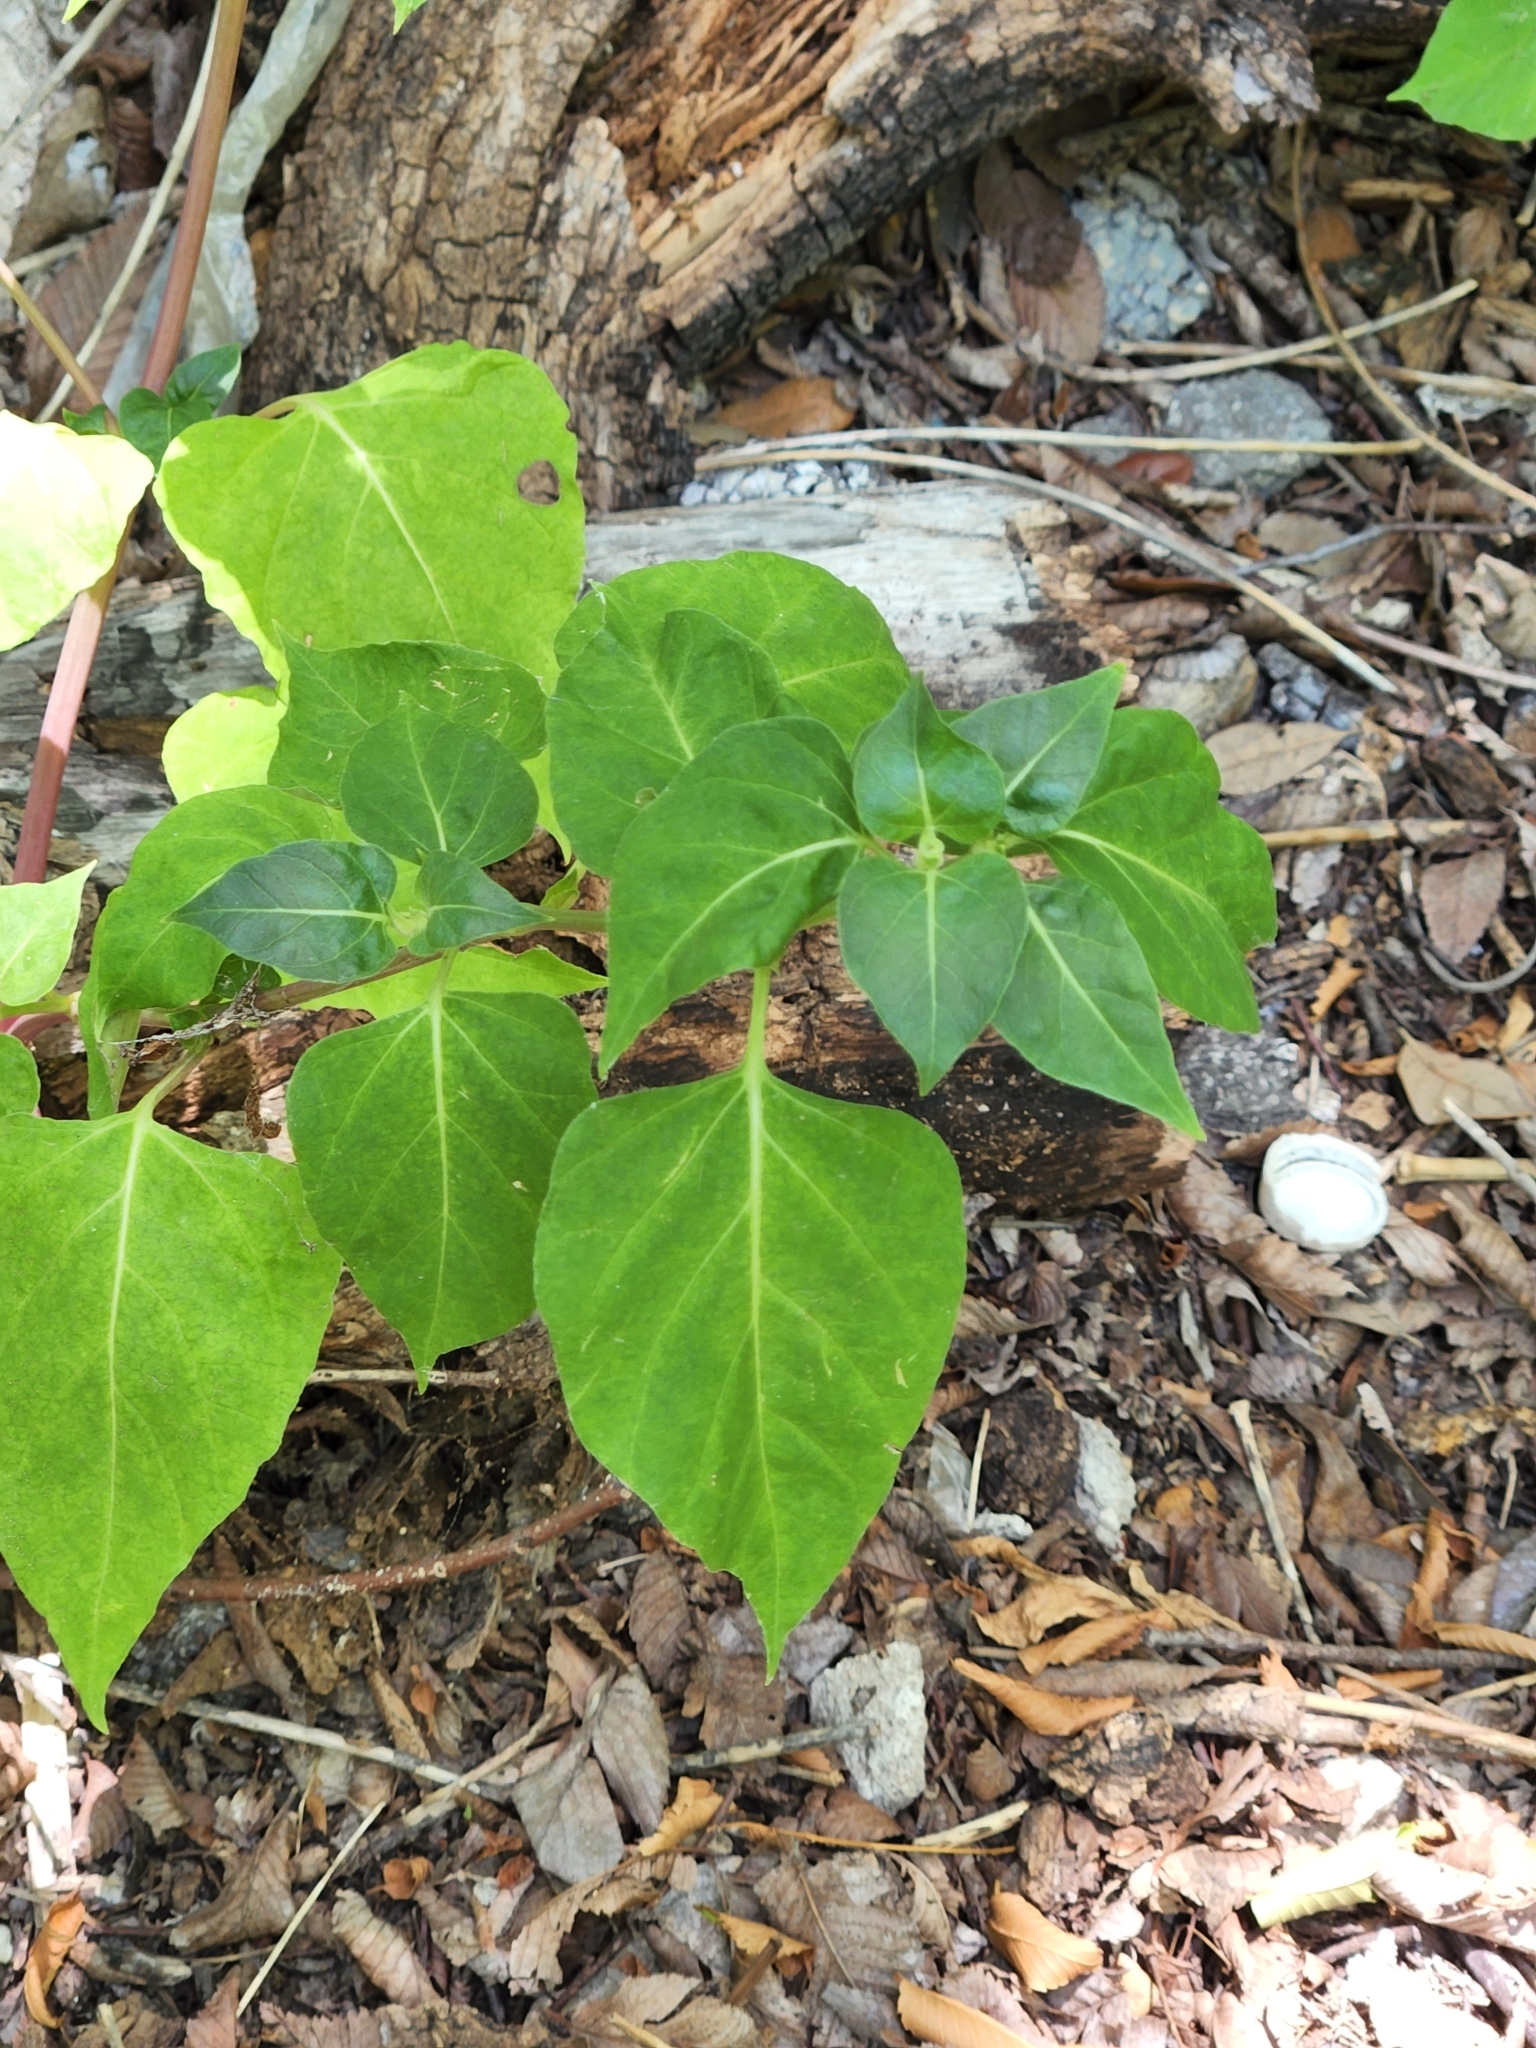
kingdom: Plantae
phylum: Tracheophyta
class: Magnoliopsida
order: Caryophyllales
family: Nyctaginaceae
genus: Mirabilis
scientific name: Mirabilis jalapa
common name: Marvel-of-peru
